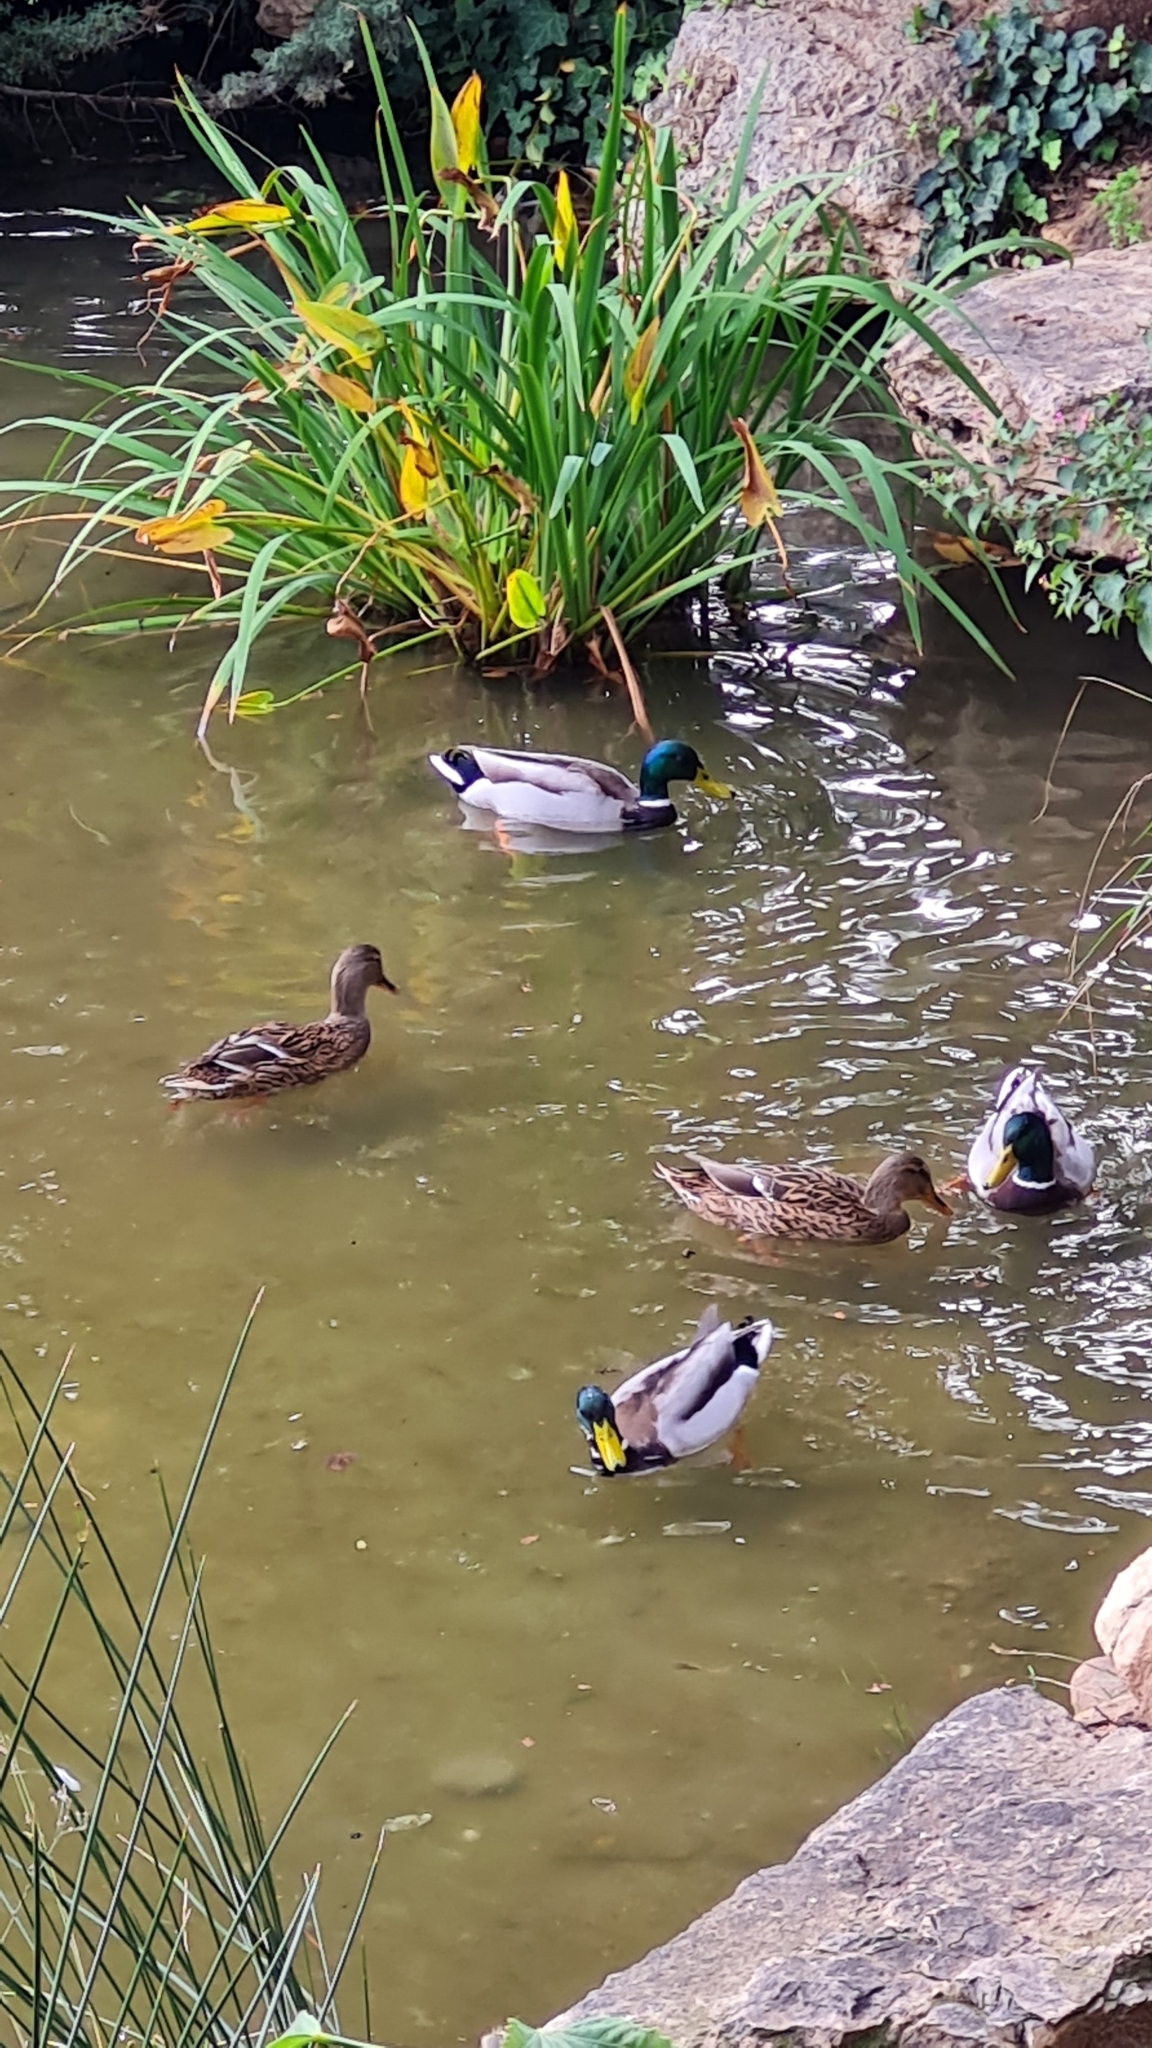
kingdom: Animalia
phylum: Chordata
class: Aves
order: Anseriformes
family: Anatidae
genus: Anas
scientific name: Anas platyrhynchos
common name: Mallard
